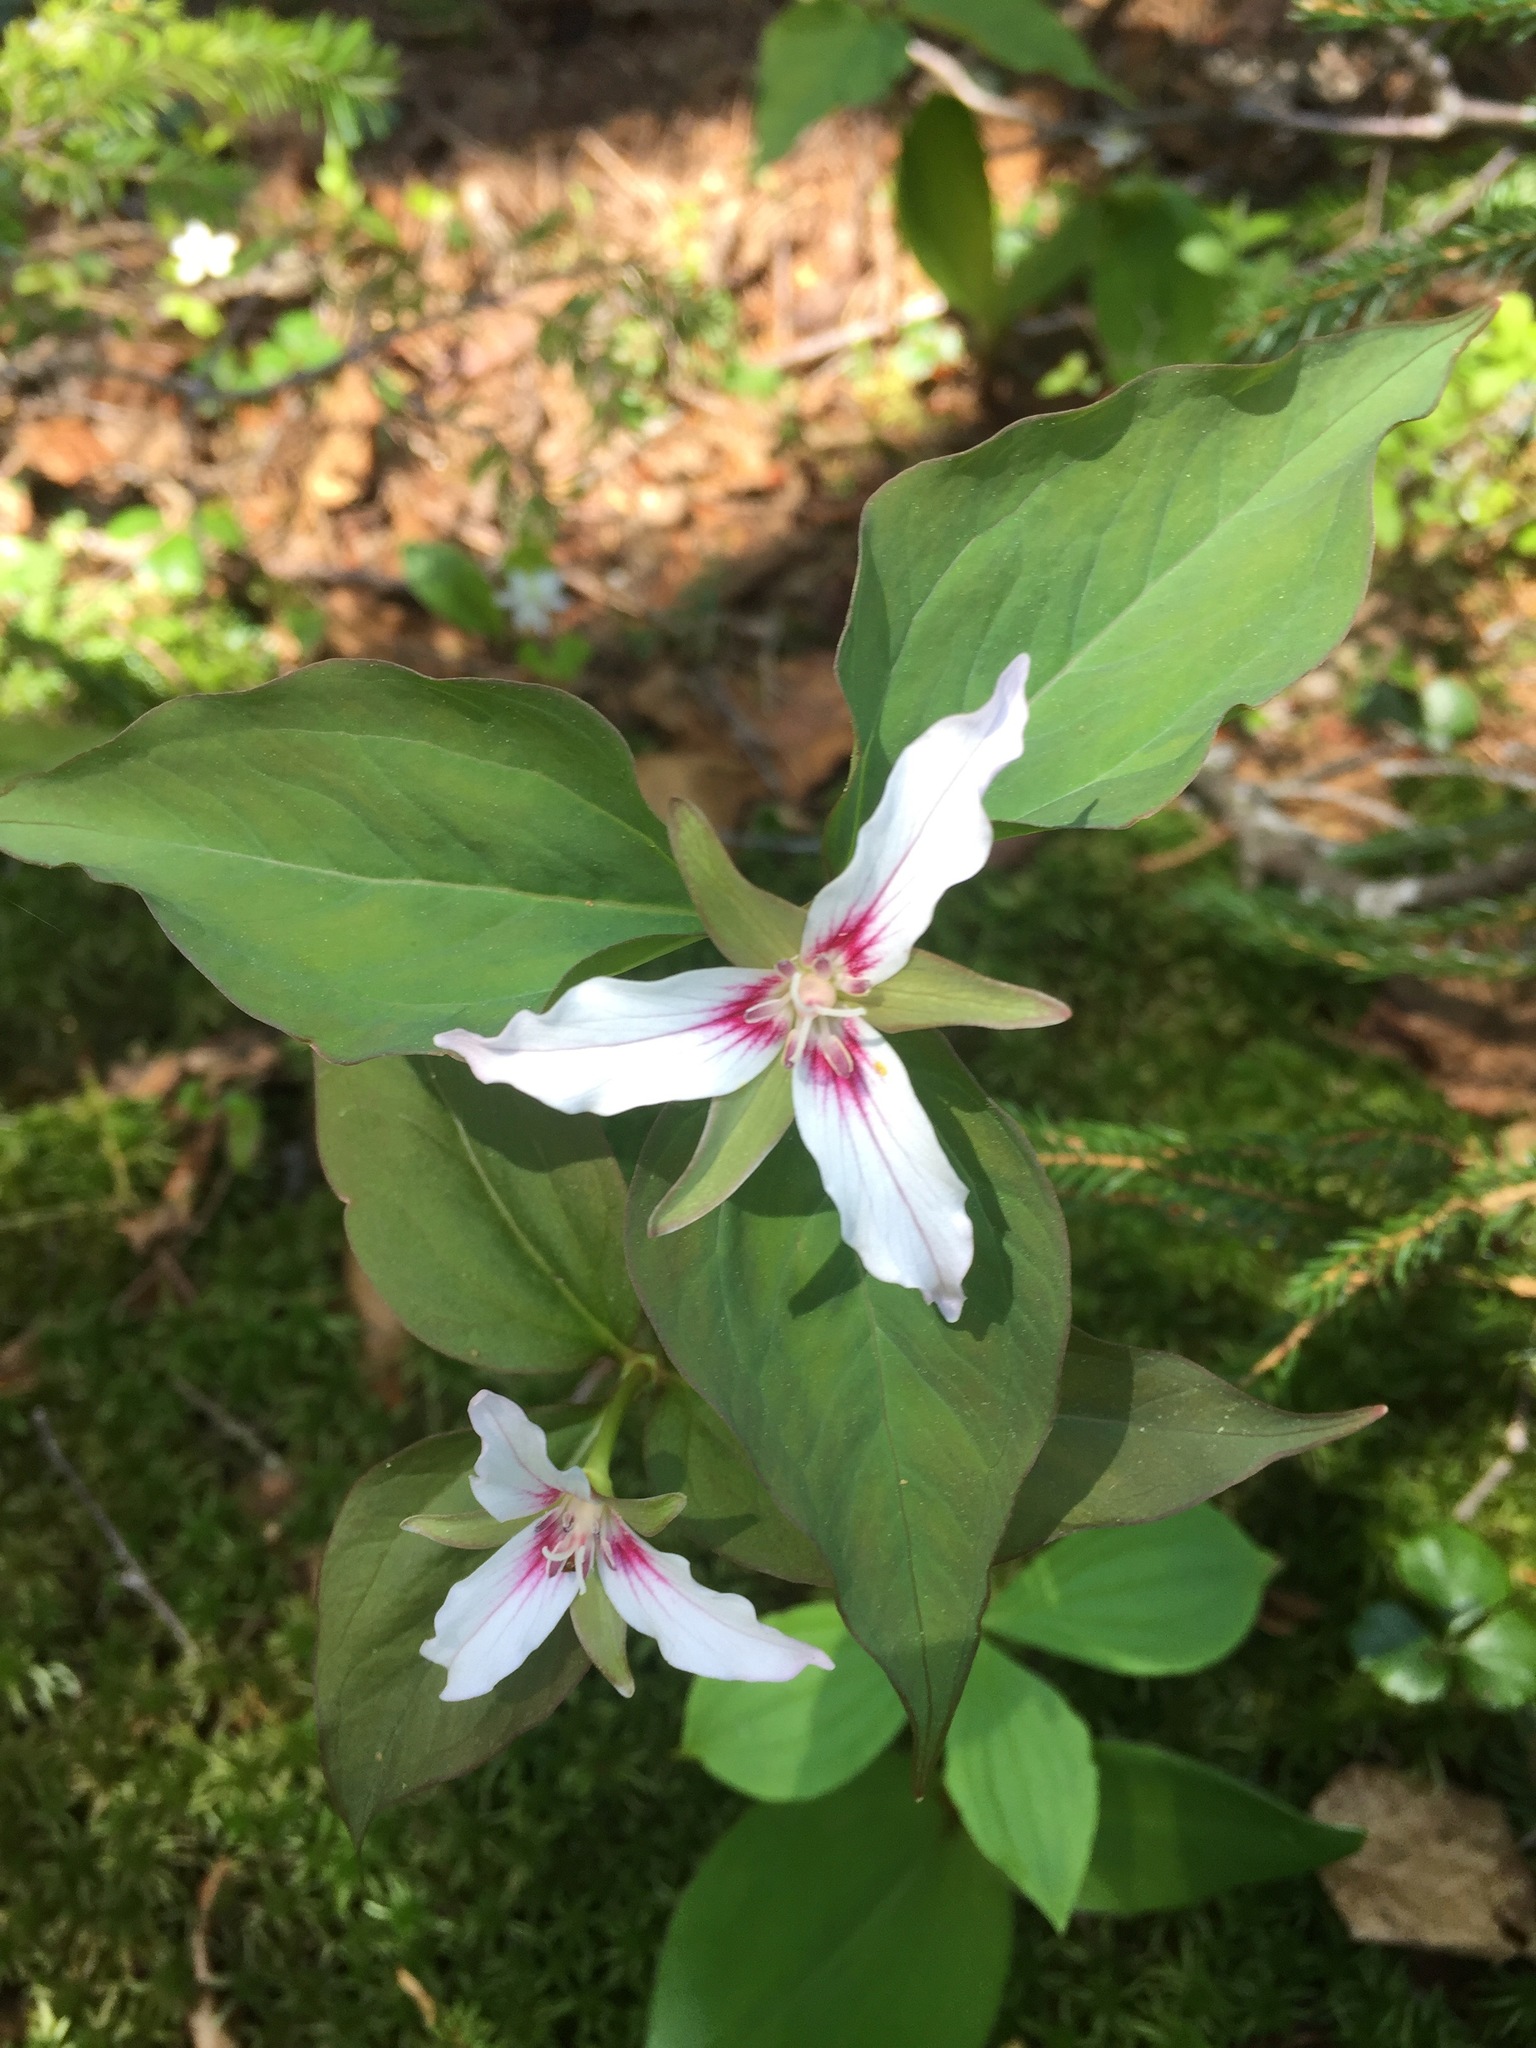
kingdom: Plantae
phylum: Tracheophyta
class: Liliopsida
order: Liliales
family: Melanthiaceae
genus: Trillium
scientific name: Trillium undulatum
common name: Paint trillium
